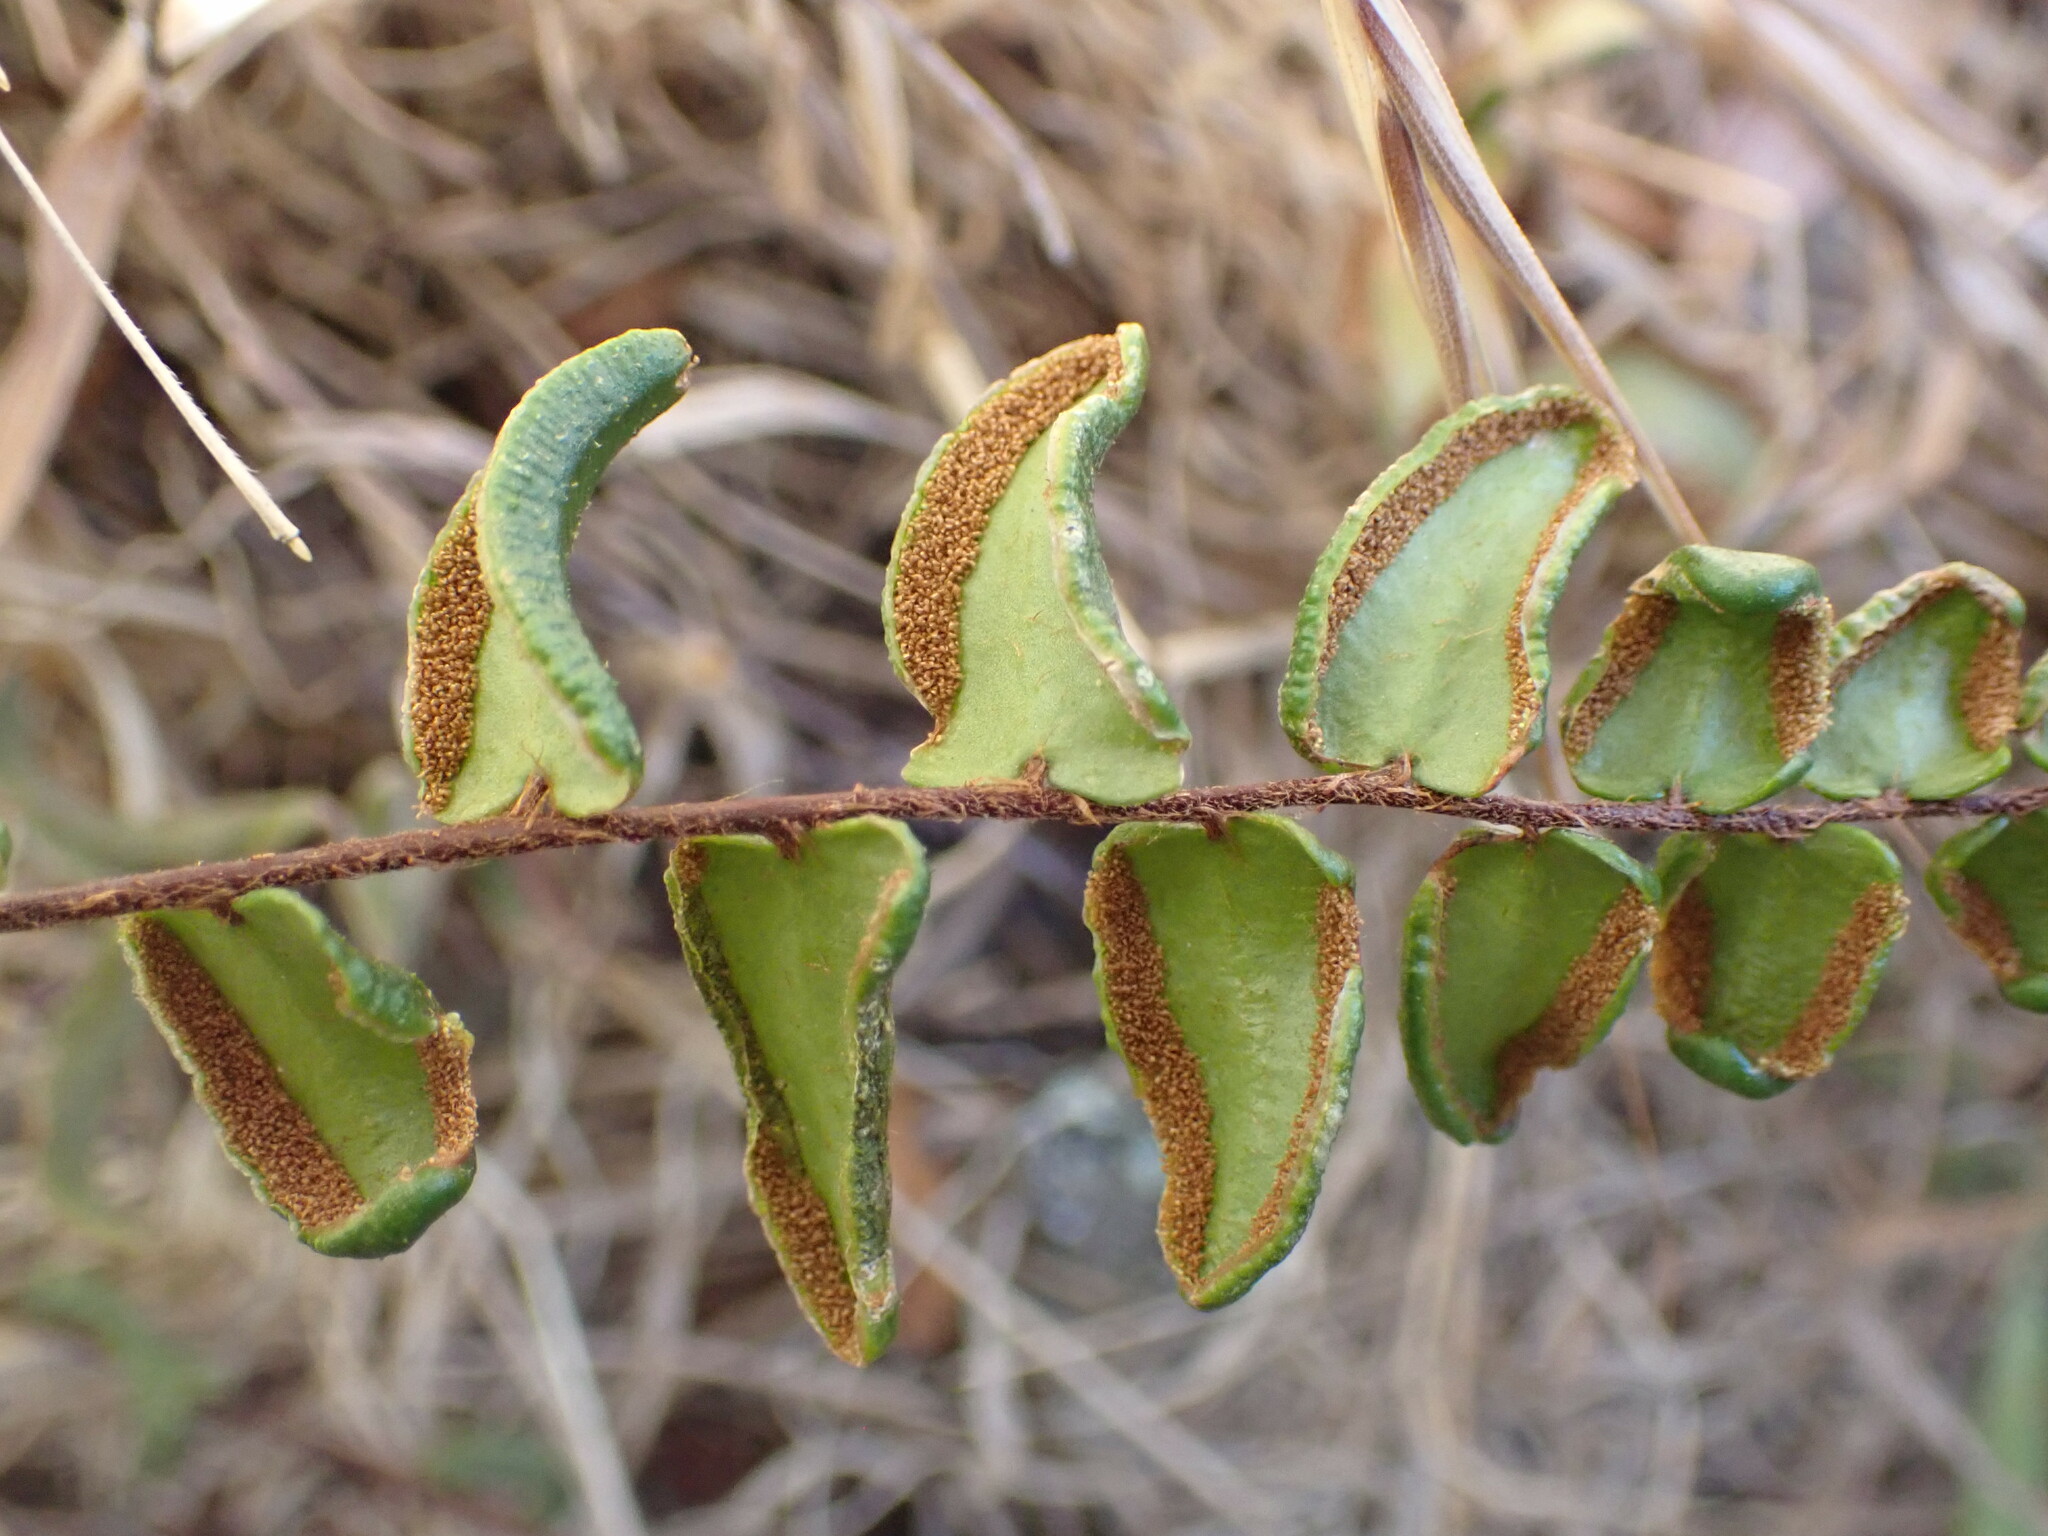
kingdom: Plantae
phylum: Tracheophyta
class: Polypodiopsida
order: Polypodiales
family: Pteridaceae
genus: Pellaea
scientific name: Pellaea calidirupium
